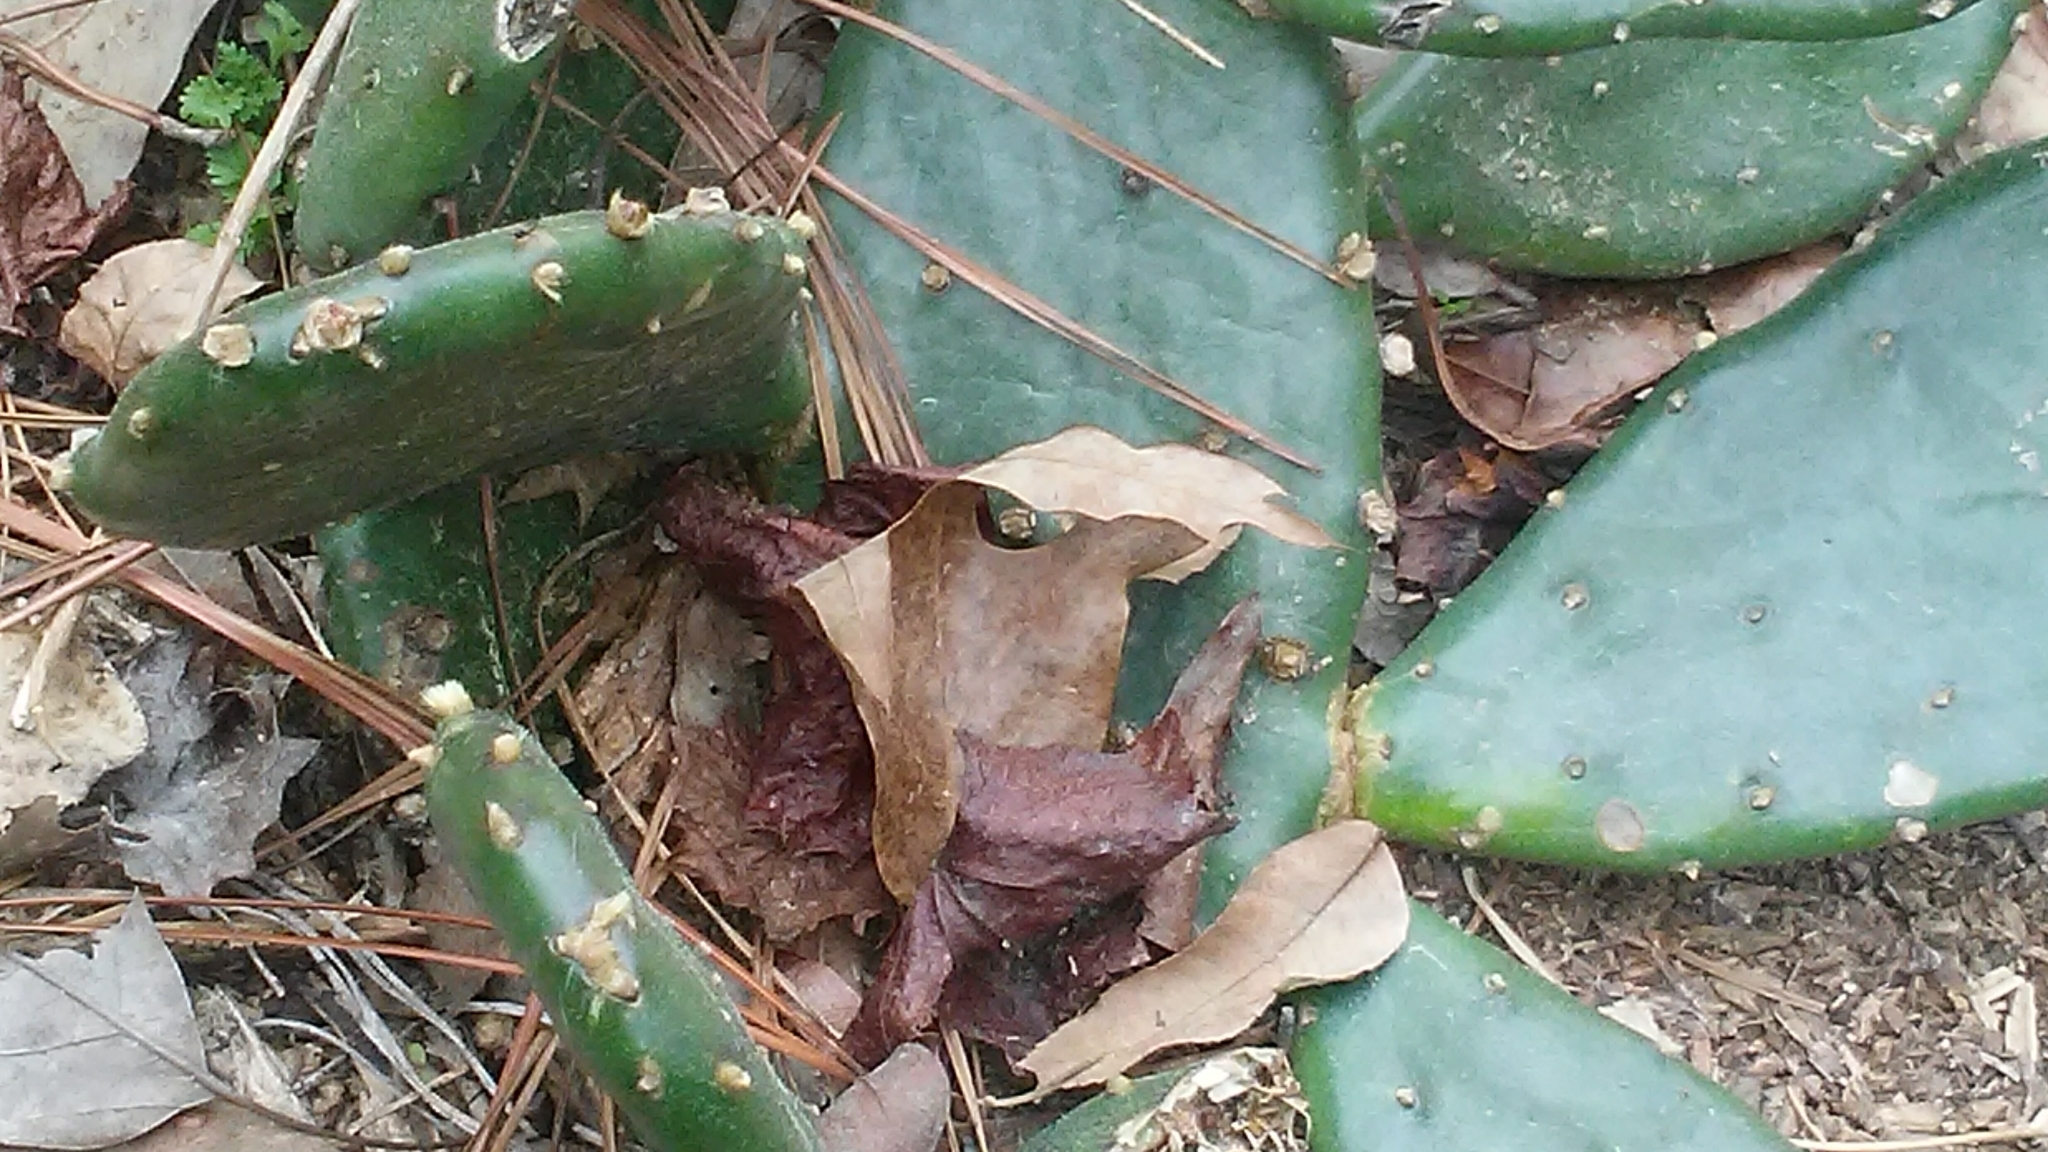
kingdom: Plantae
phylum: Tracheophyta
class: Magnoliopsida
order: Caryophyllales
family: Cactaceae
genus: Opuntia
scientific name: Opuntia humifusa
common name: Eastern prickly-pear
